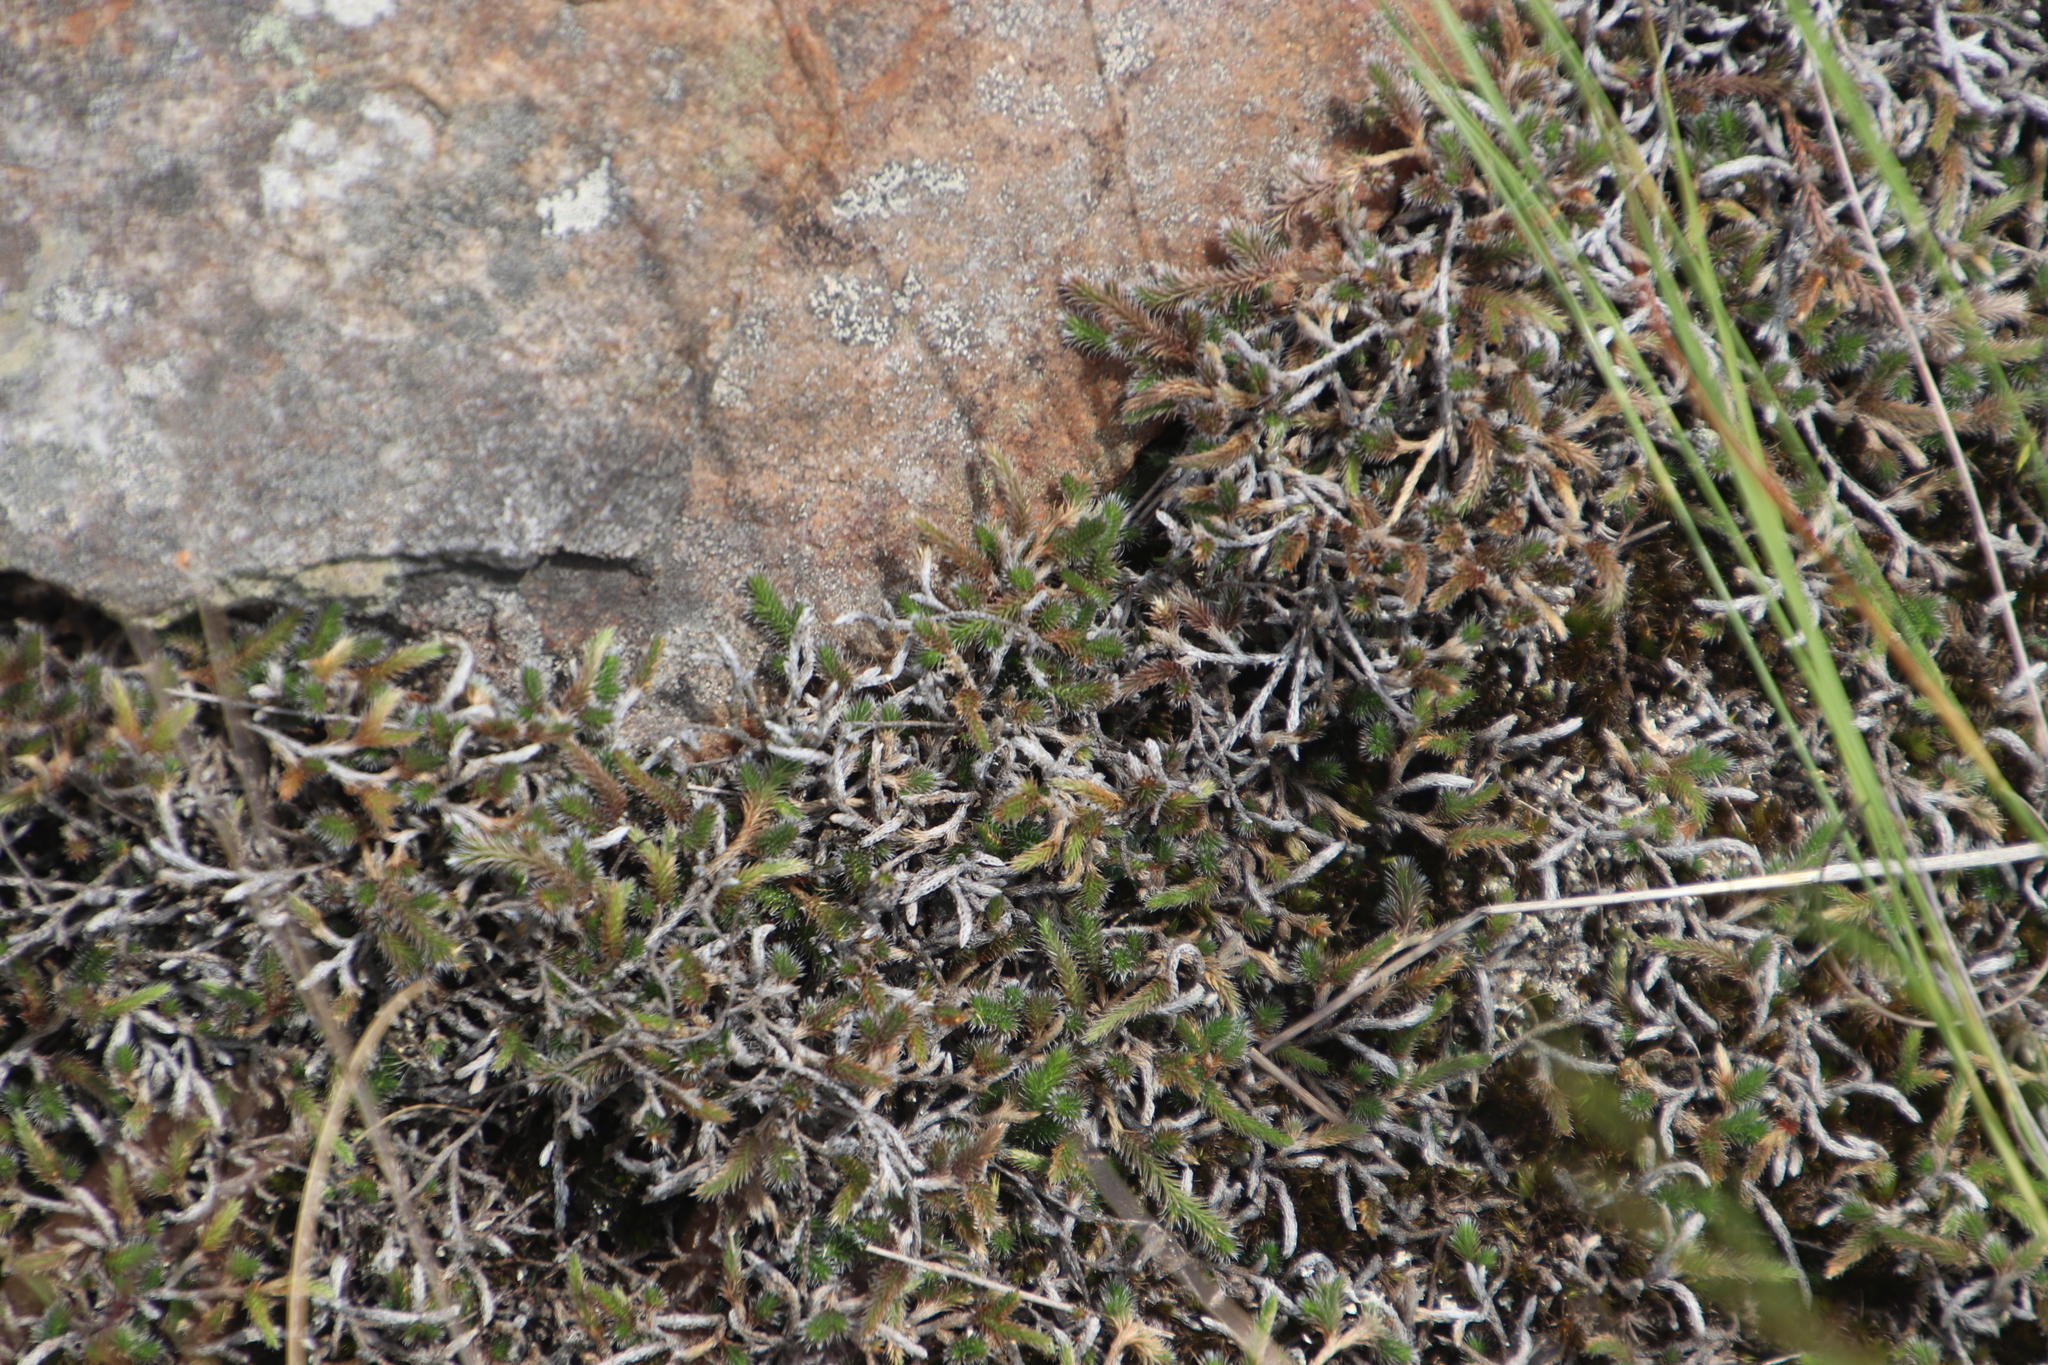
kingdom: Plantae
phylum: Tracheophyta
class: Lycopodiopsida
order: Selaginellales
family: Selaginellaceae
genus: Selaginella
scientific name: Selaginella dregei
